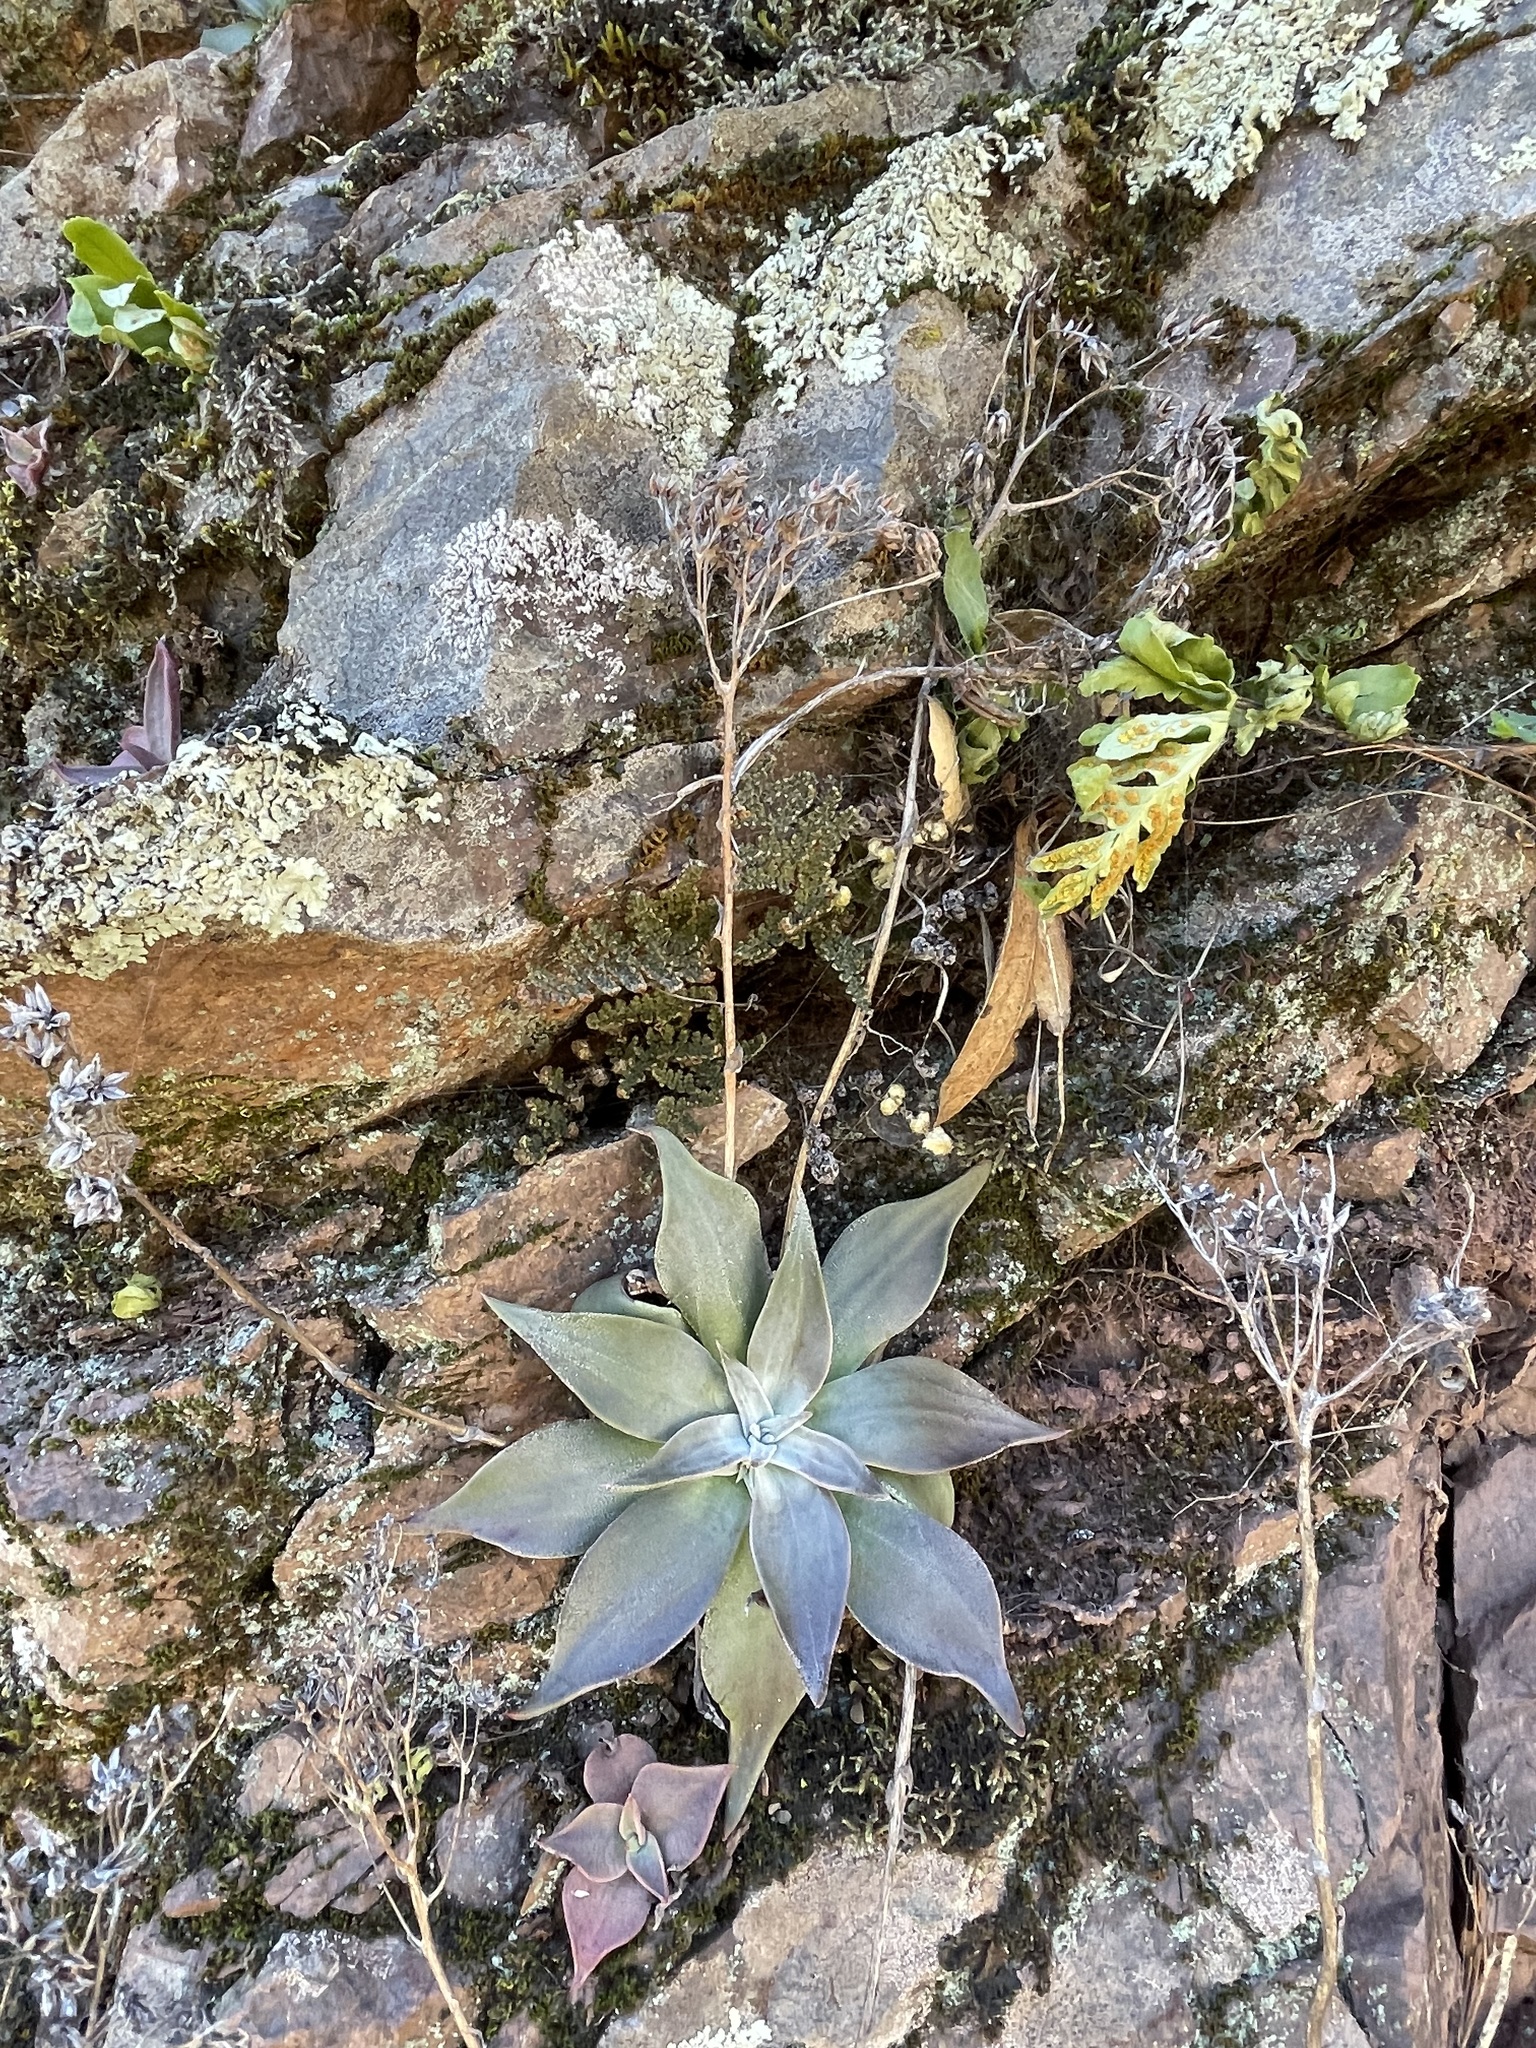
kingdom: Plantae
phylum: Tracheophyta
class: Magnoliopsida
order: Saxifragales
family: Crassulaceae
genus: Dudleya
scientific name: Dudleya cymosa
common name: Canyon dudleya
